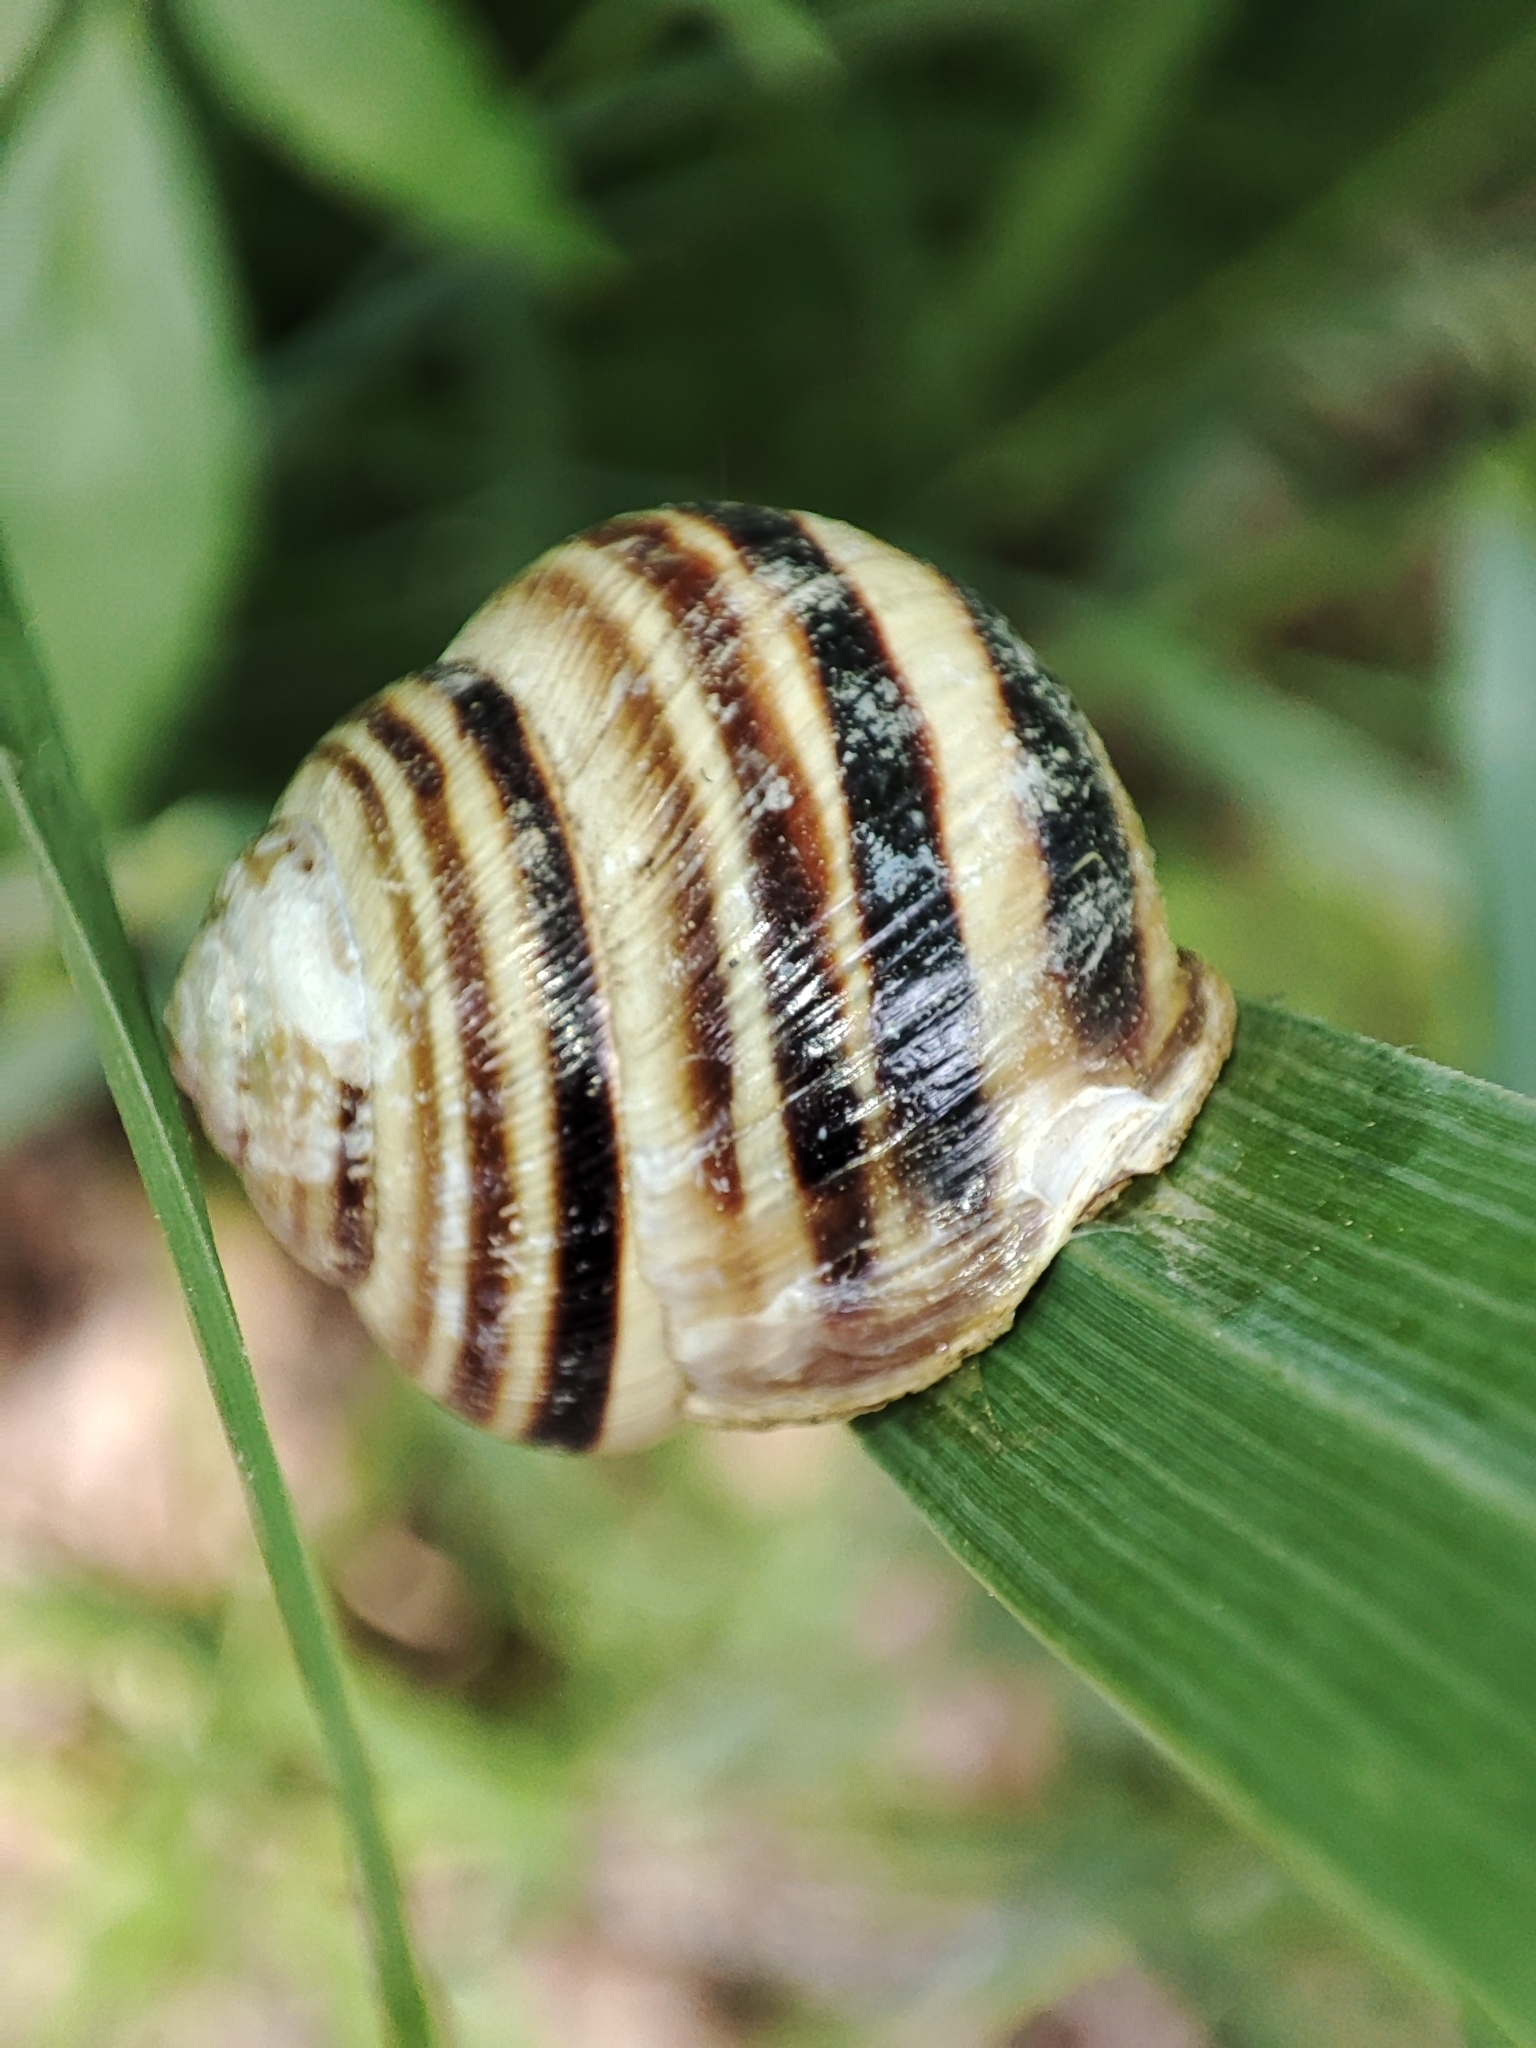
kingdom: Animalia
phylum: Mollusca
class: Gastropoda
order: Stylommatophora
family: Helicidae
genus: Caucasotachea
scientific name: Caucasotachea vindobonensis
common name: European helicid land snail
